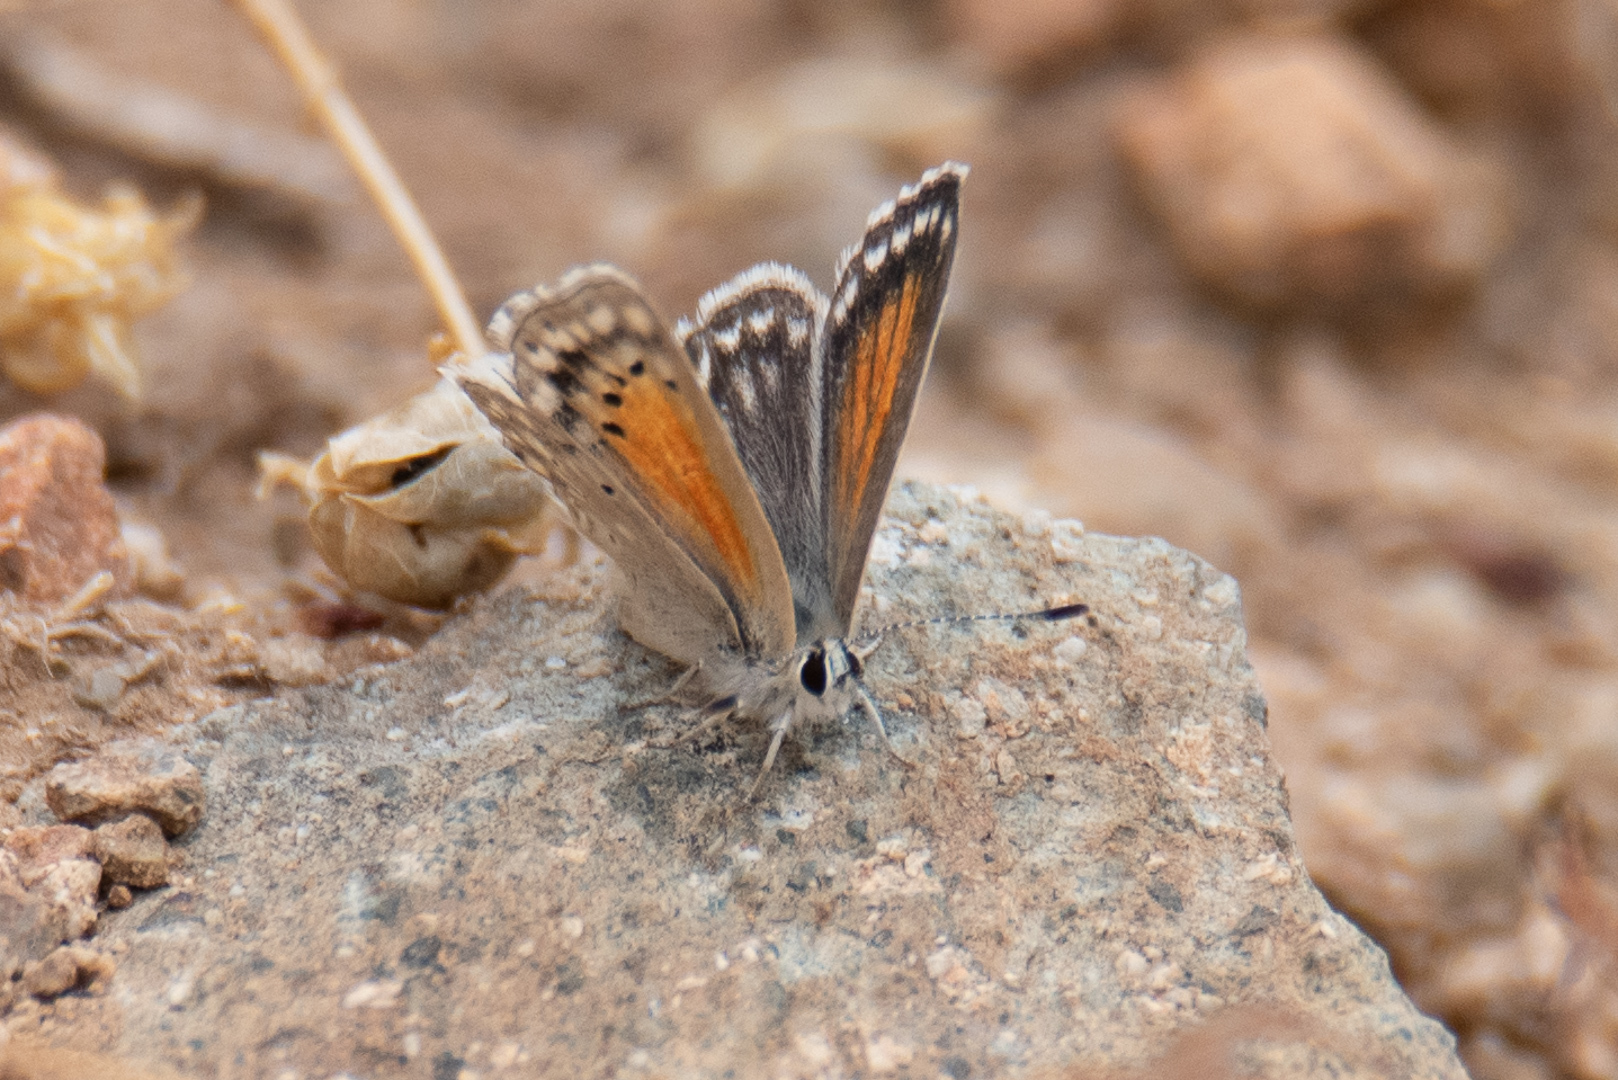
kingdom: Animalia
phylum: Arthropoda
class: Insecta
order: Lepidoptera
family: Lycaenidae
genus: Pseudolucia
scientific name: Pseudolucia chilensis
